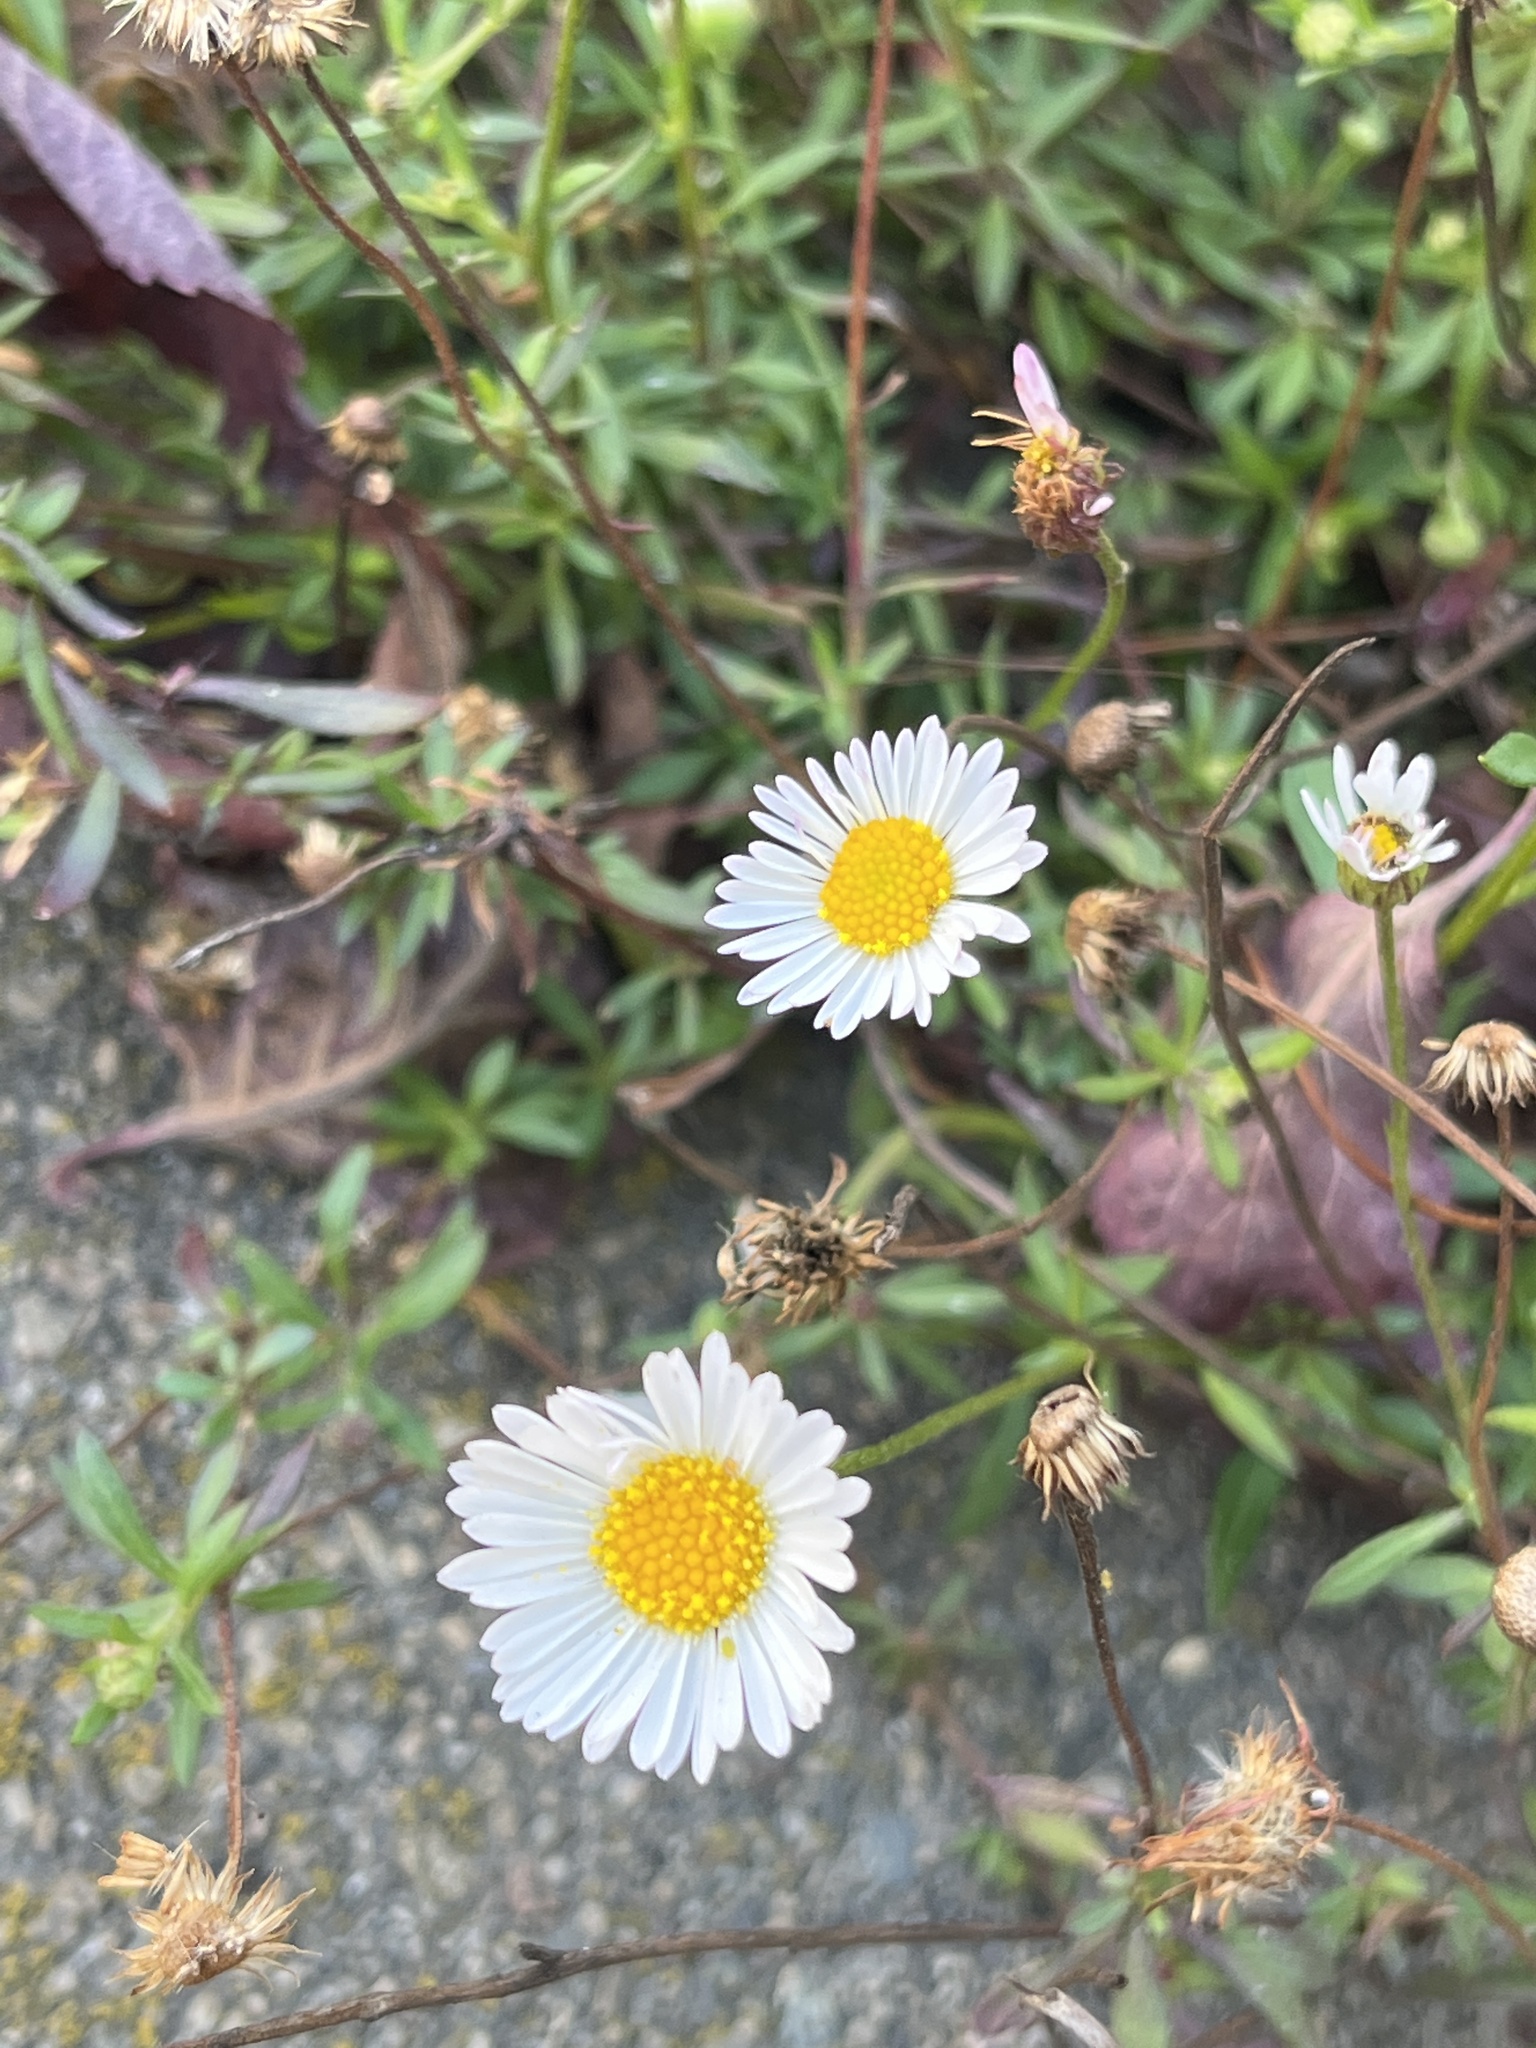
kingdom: Plantae
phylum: Tracheophyta
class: Magnoliopsida
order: Asterales
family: Asteraceae
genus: Erigeron
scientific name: Erigeron karvinskianus
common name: Mexican fleabane
